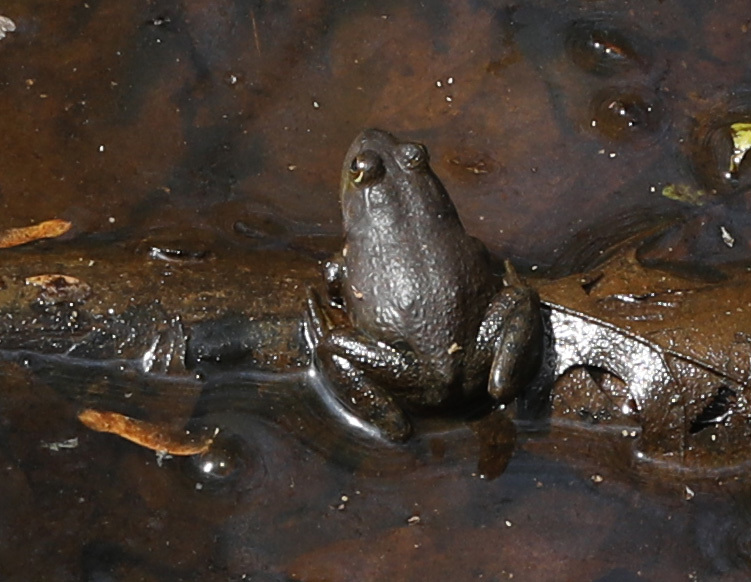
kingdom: Animalia
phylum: Chordata
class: Amphibia
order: Anura
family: Ranidae
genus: Lithobates
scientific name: Lithobates catesbeianus
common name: American bullfrog
